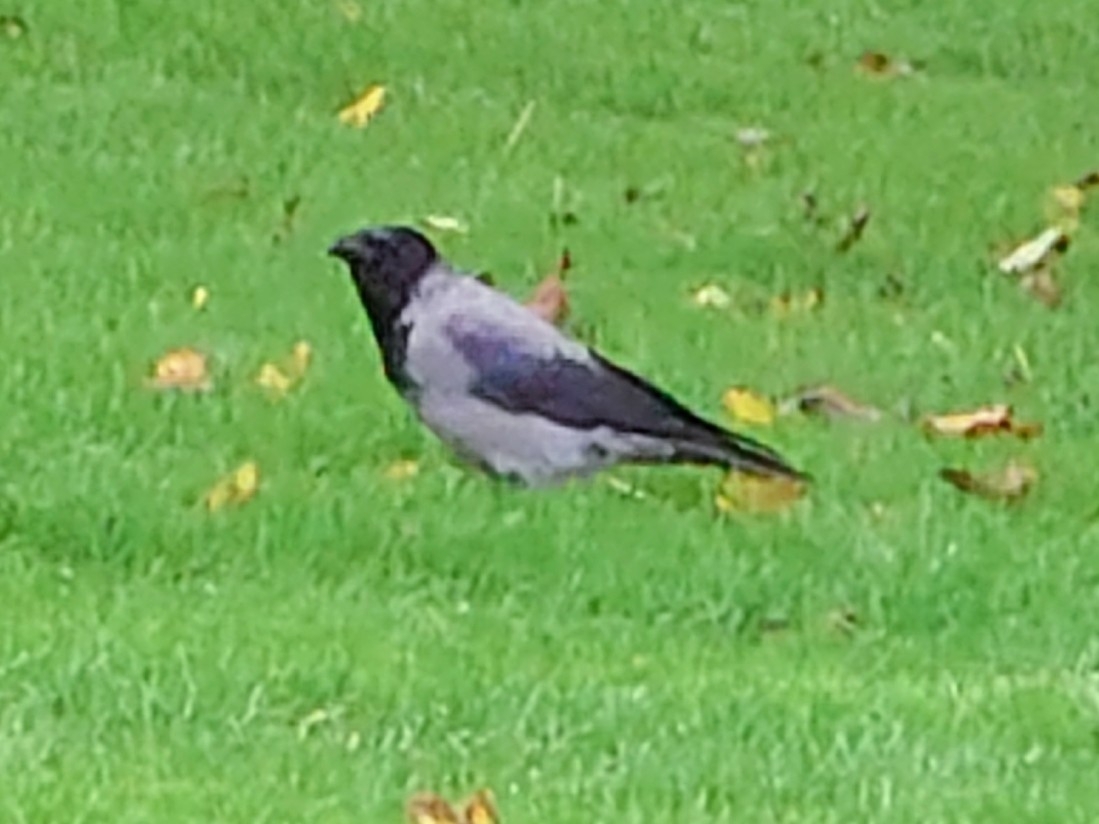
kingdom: Animalia
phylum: Chordata
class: Aves
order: Passeriformes
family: Corvidae
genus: Corvus
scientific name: Corvus cornix
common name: Hooded crow
